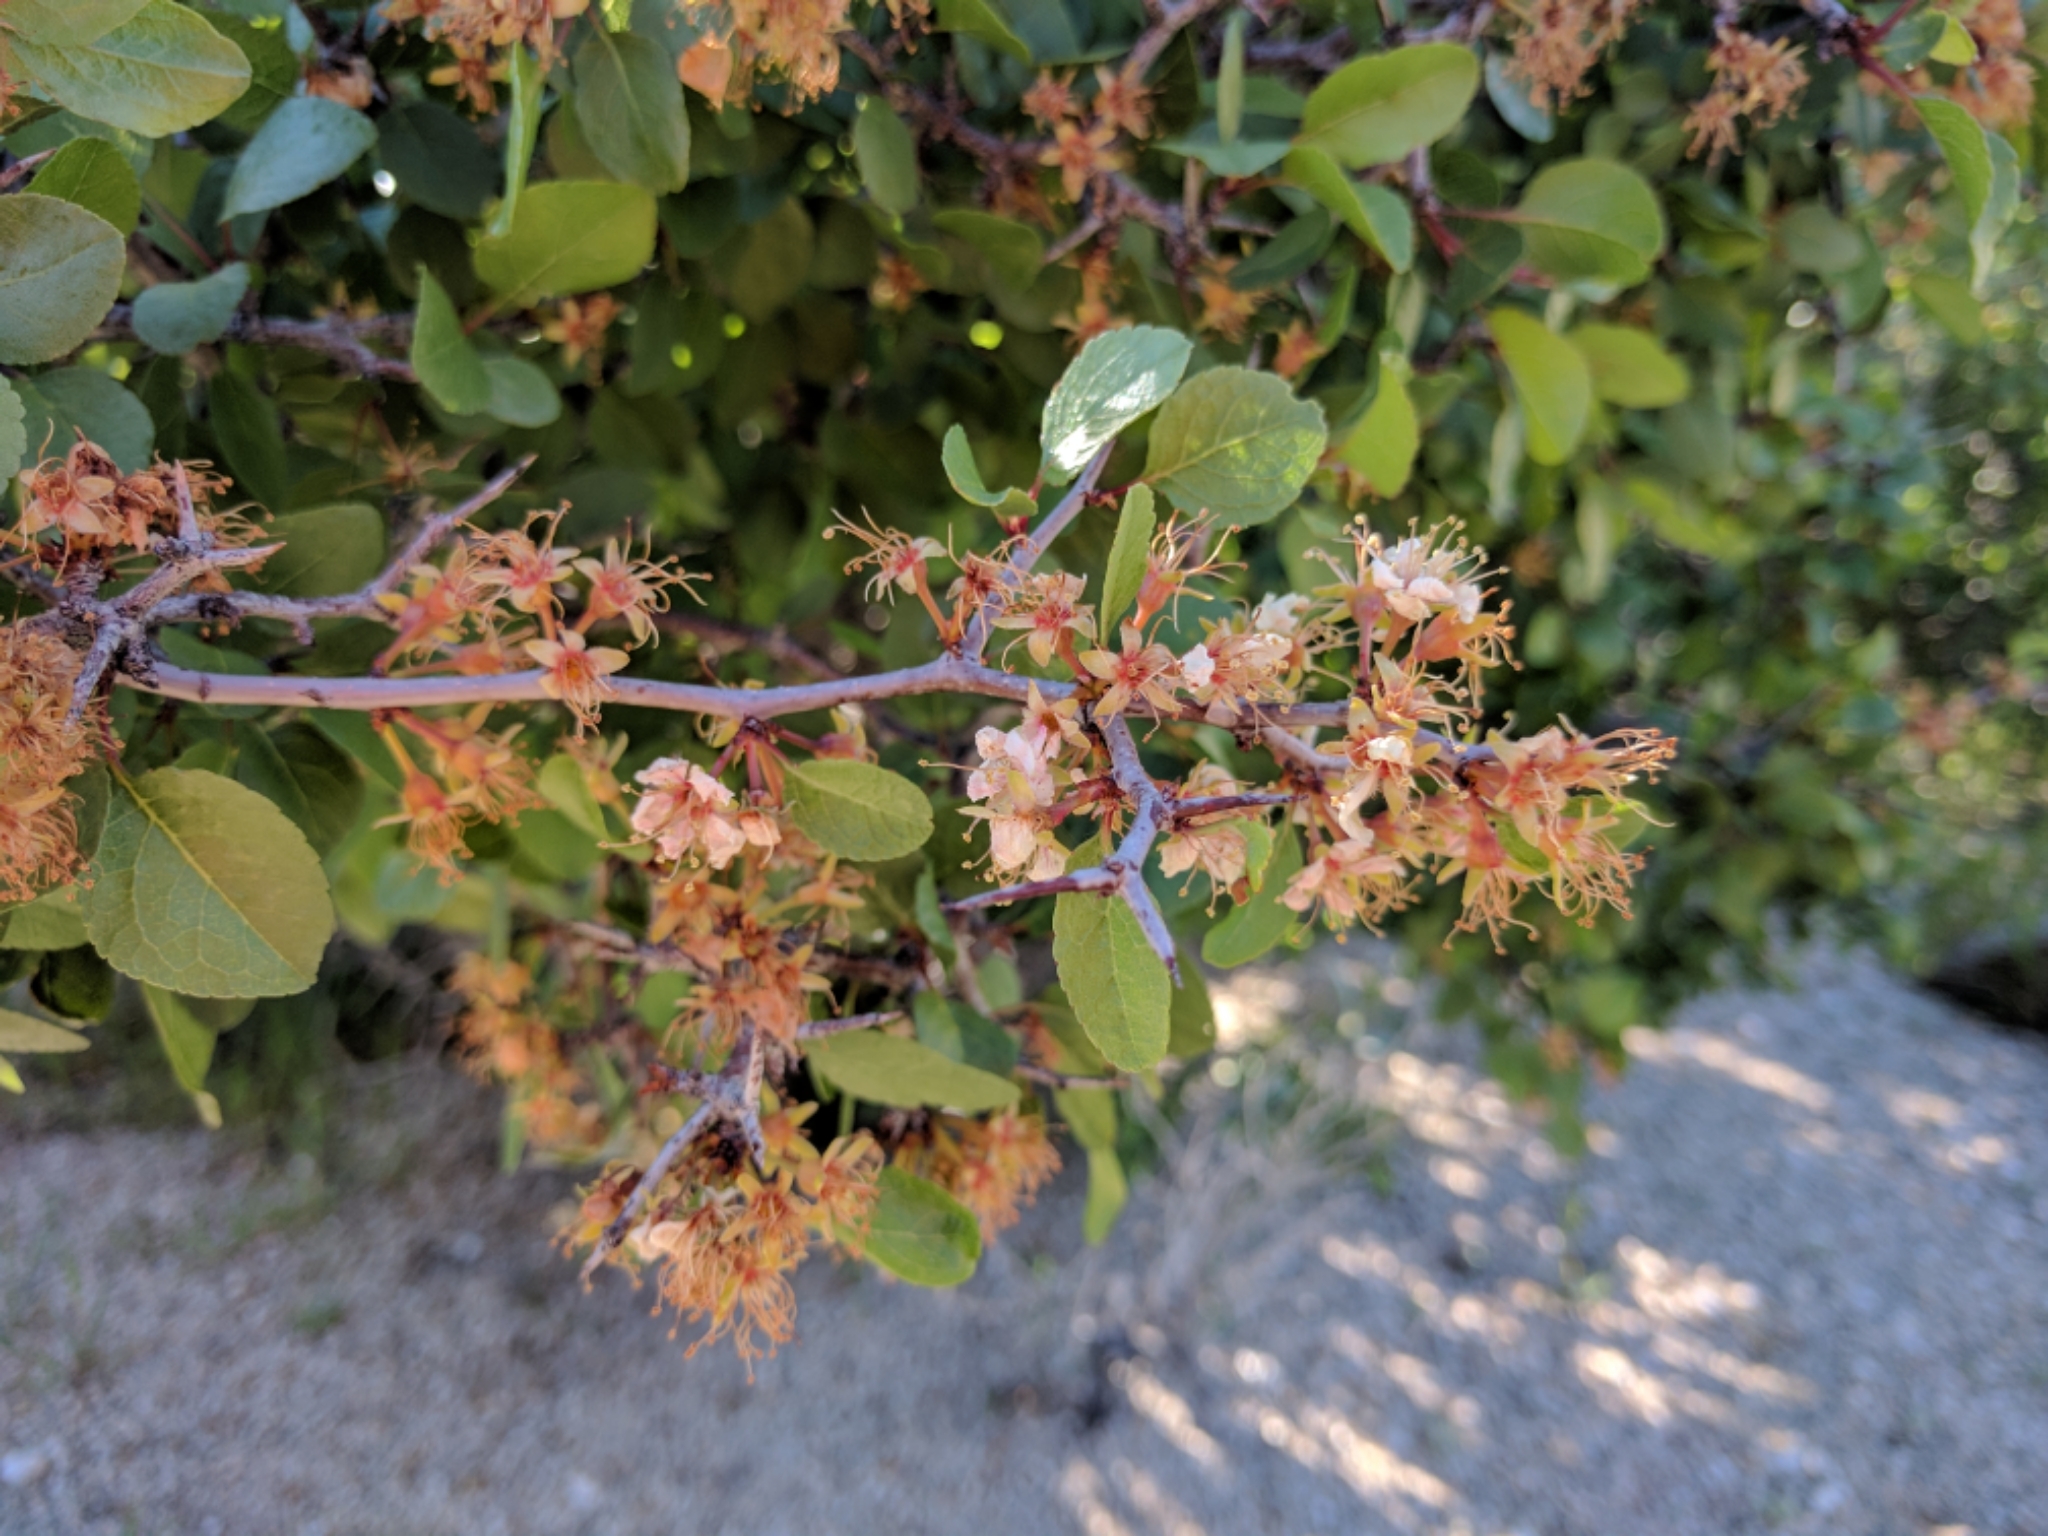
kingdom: Plantae
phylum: Tracheophyta
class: Magnoliopsida
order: Rosales
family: Rosaceae
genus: Prunus
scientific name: Prunus fremontii
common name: Desert apricot
